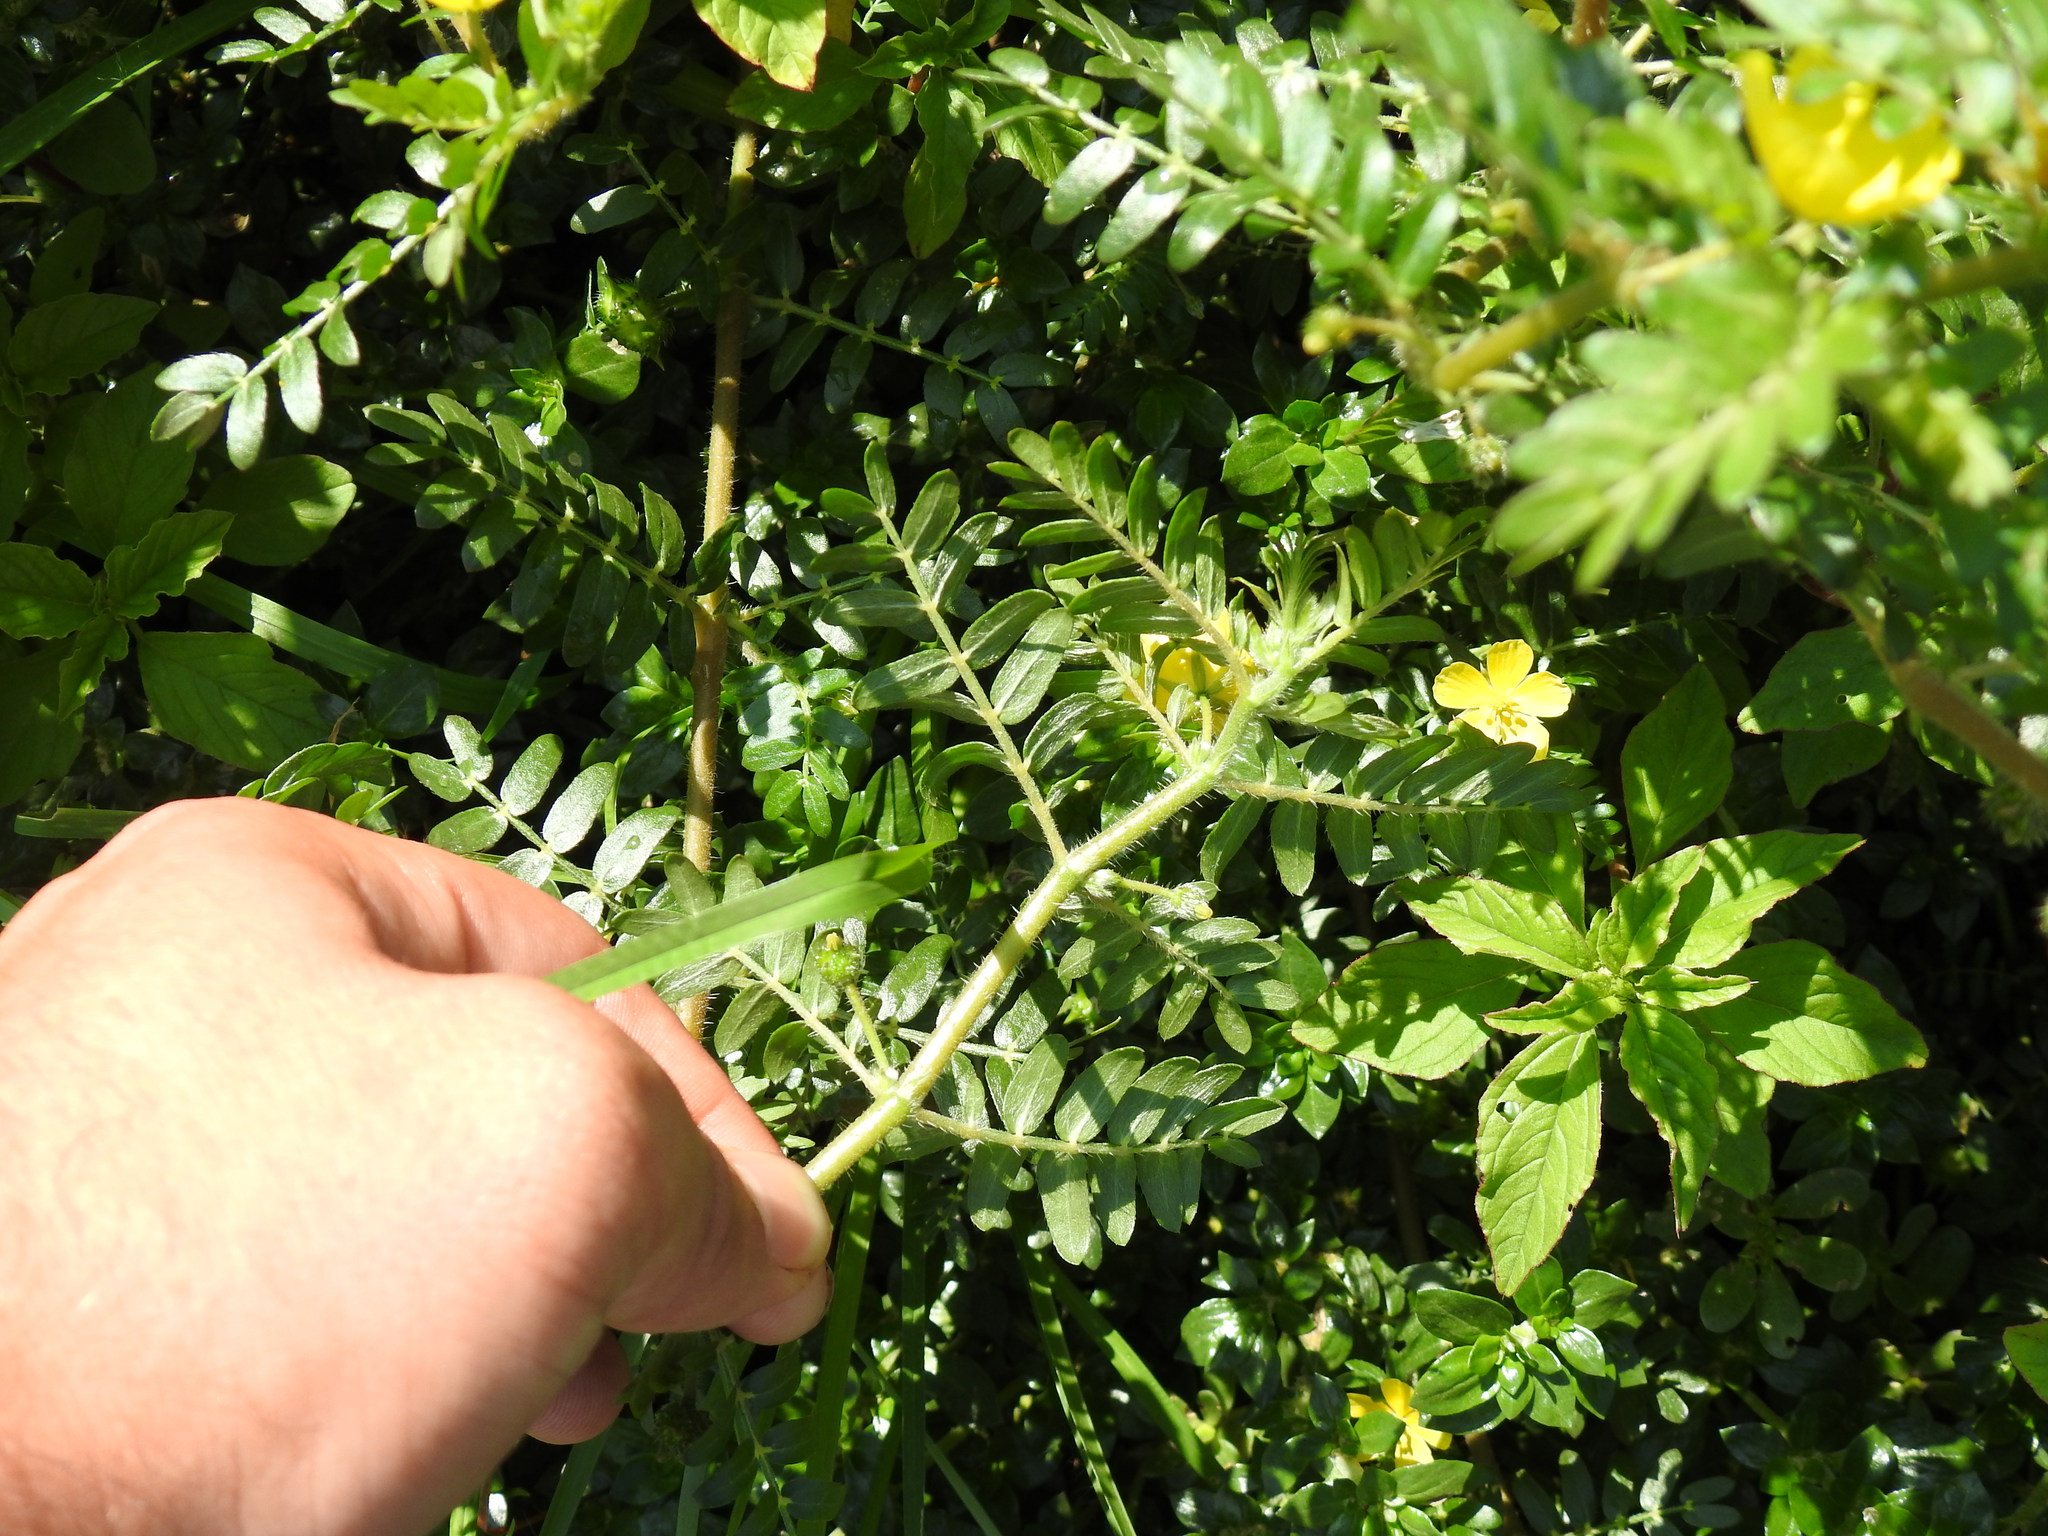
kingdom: Plantae
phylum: Tracheophyta
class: Magnoliopsida
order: Zygophyllales
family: Zygophyllaceae
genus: Tribulus
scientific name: Tribulus terrestris
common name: Puncturevine
